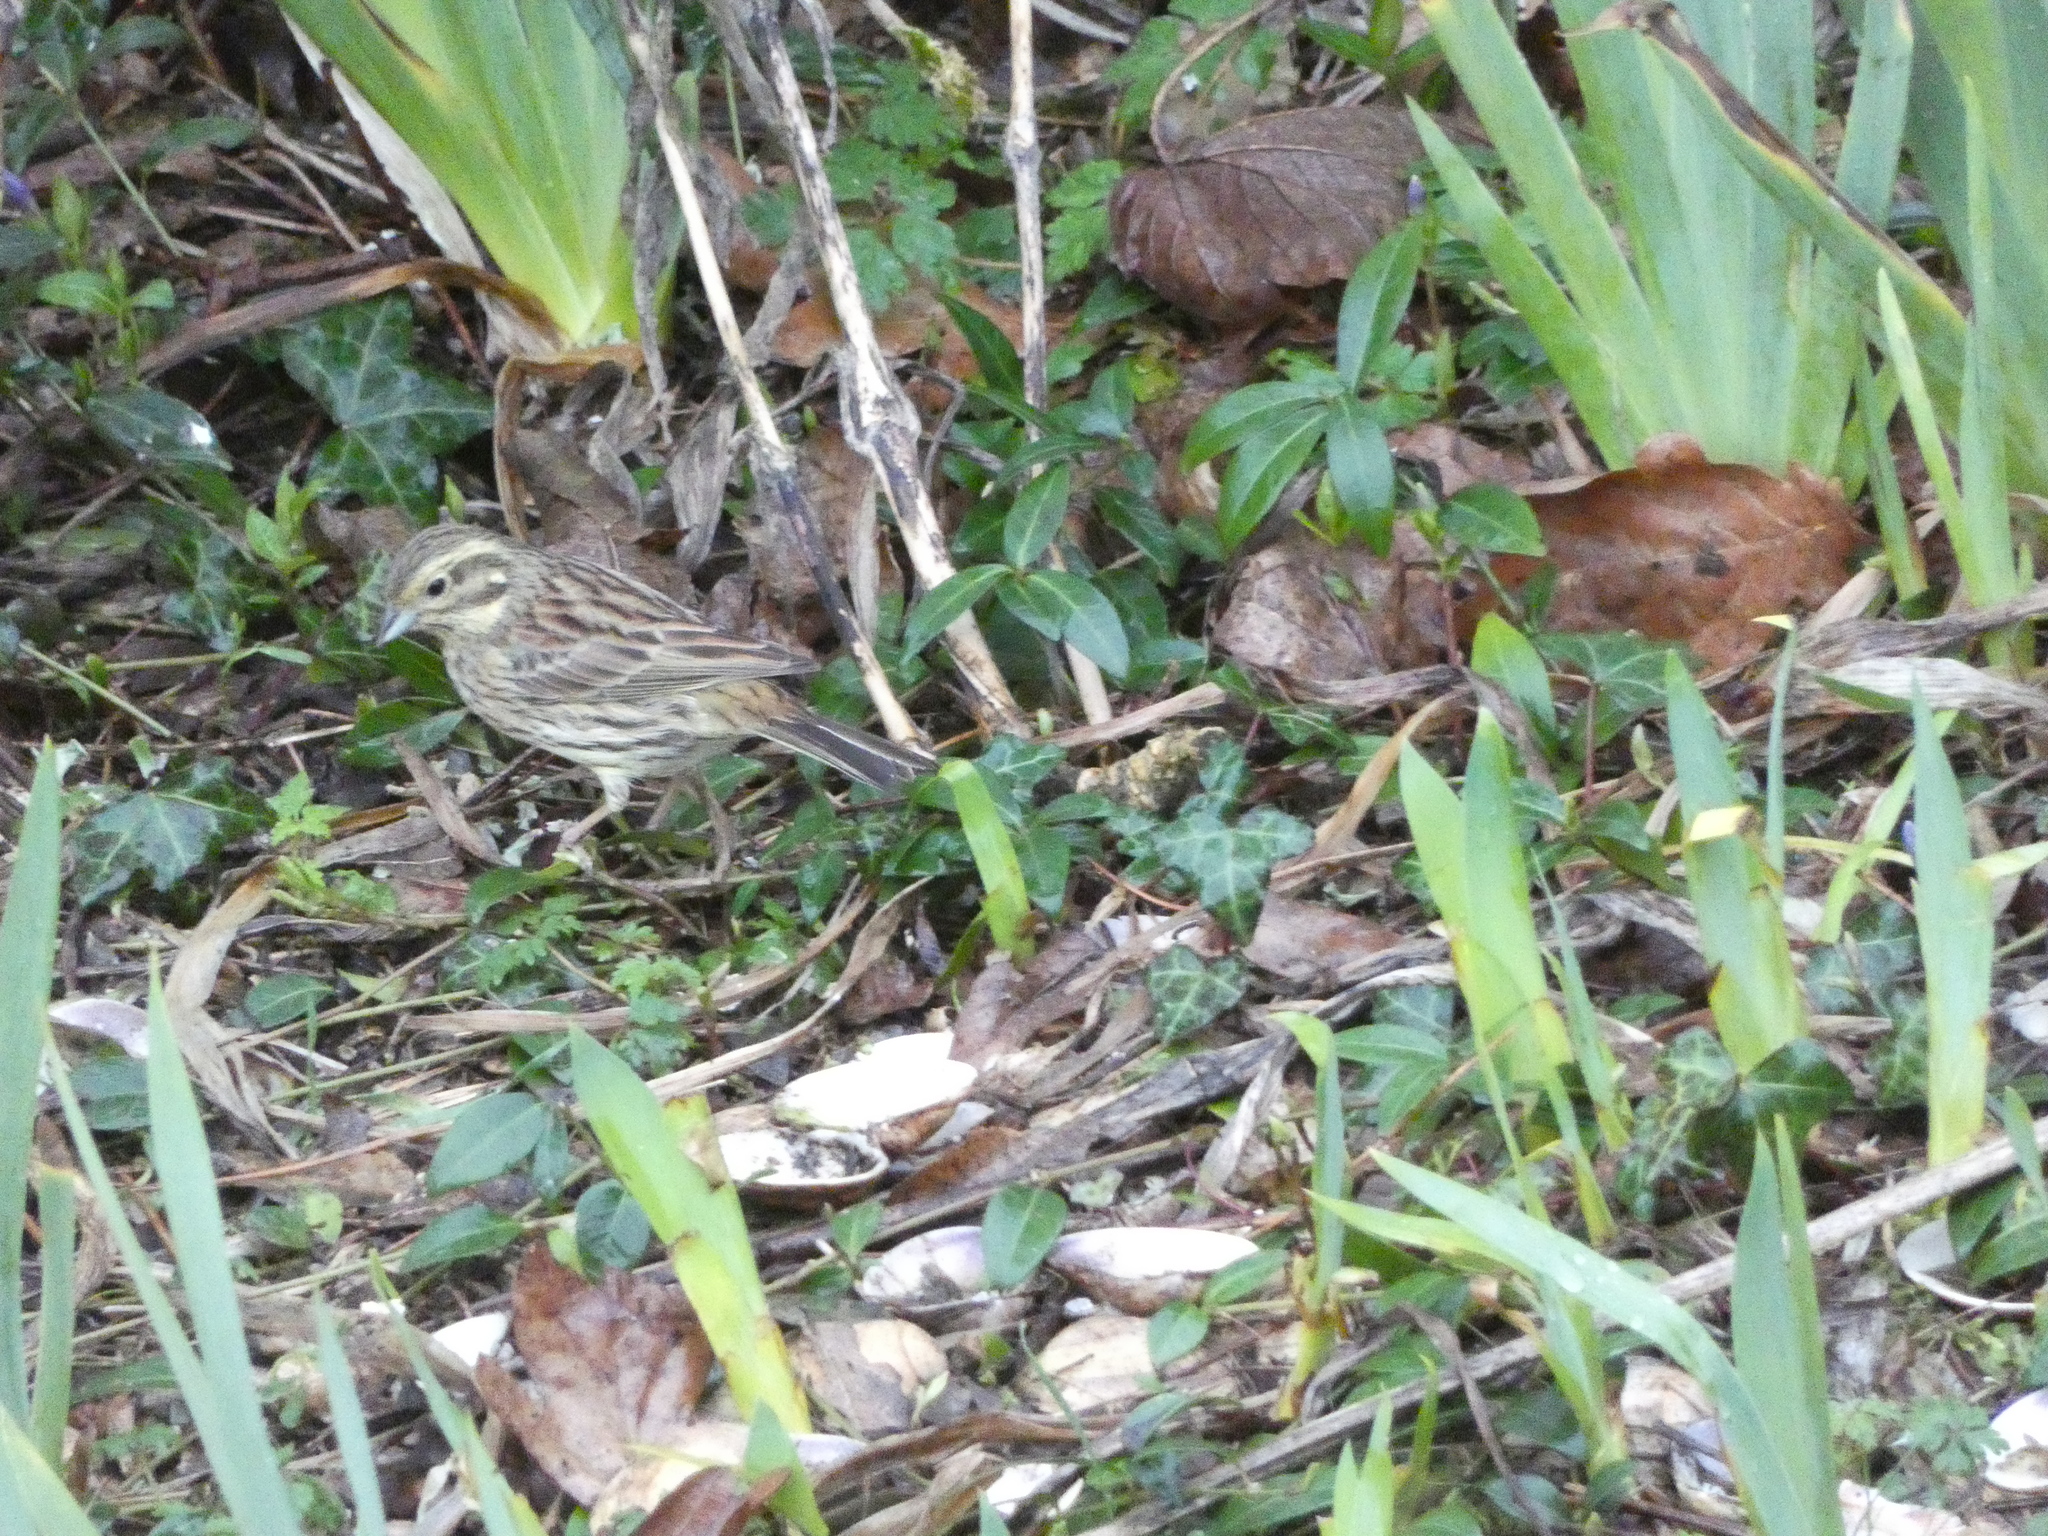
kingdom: Animalia
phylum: Chordata
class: Aves
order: Passeriformes
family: Emberizidae
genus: Emberiza
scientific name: Emberiza cirlus
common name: Cirl bunting
